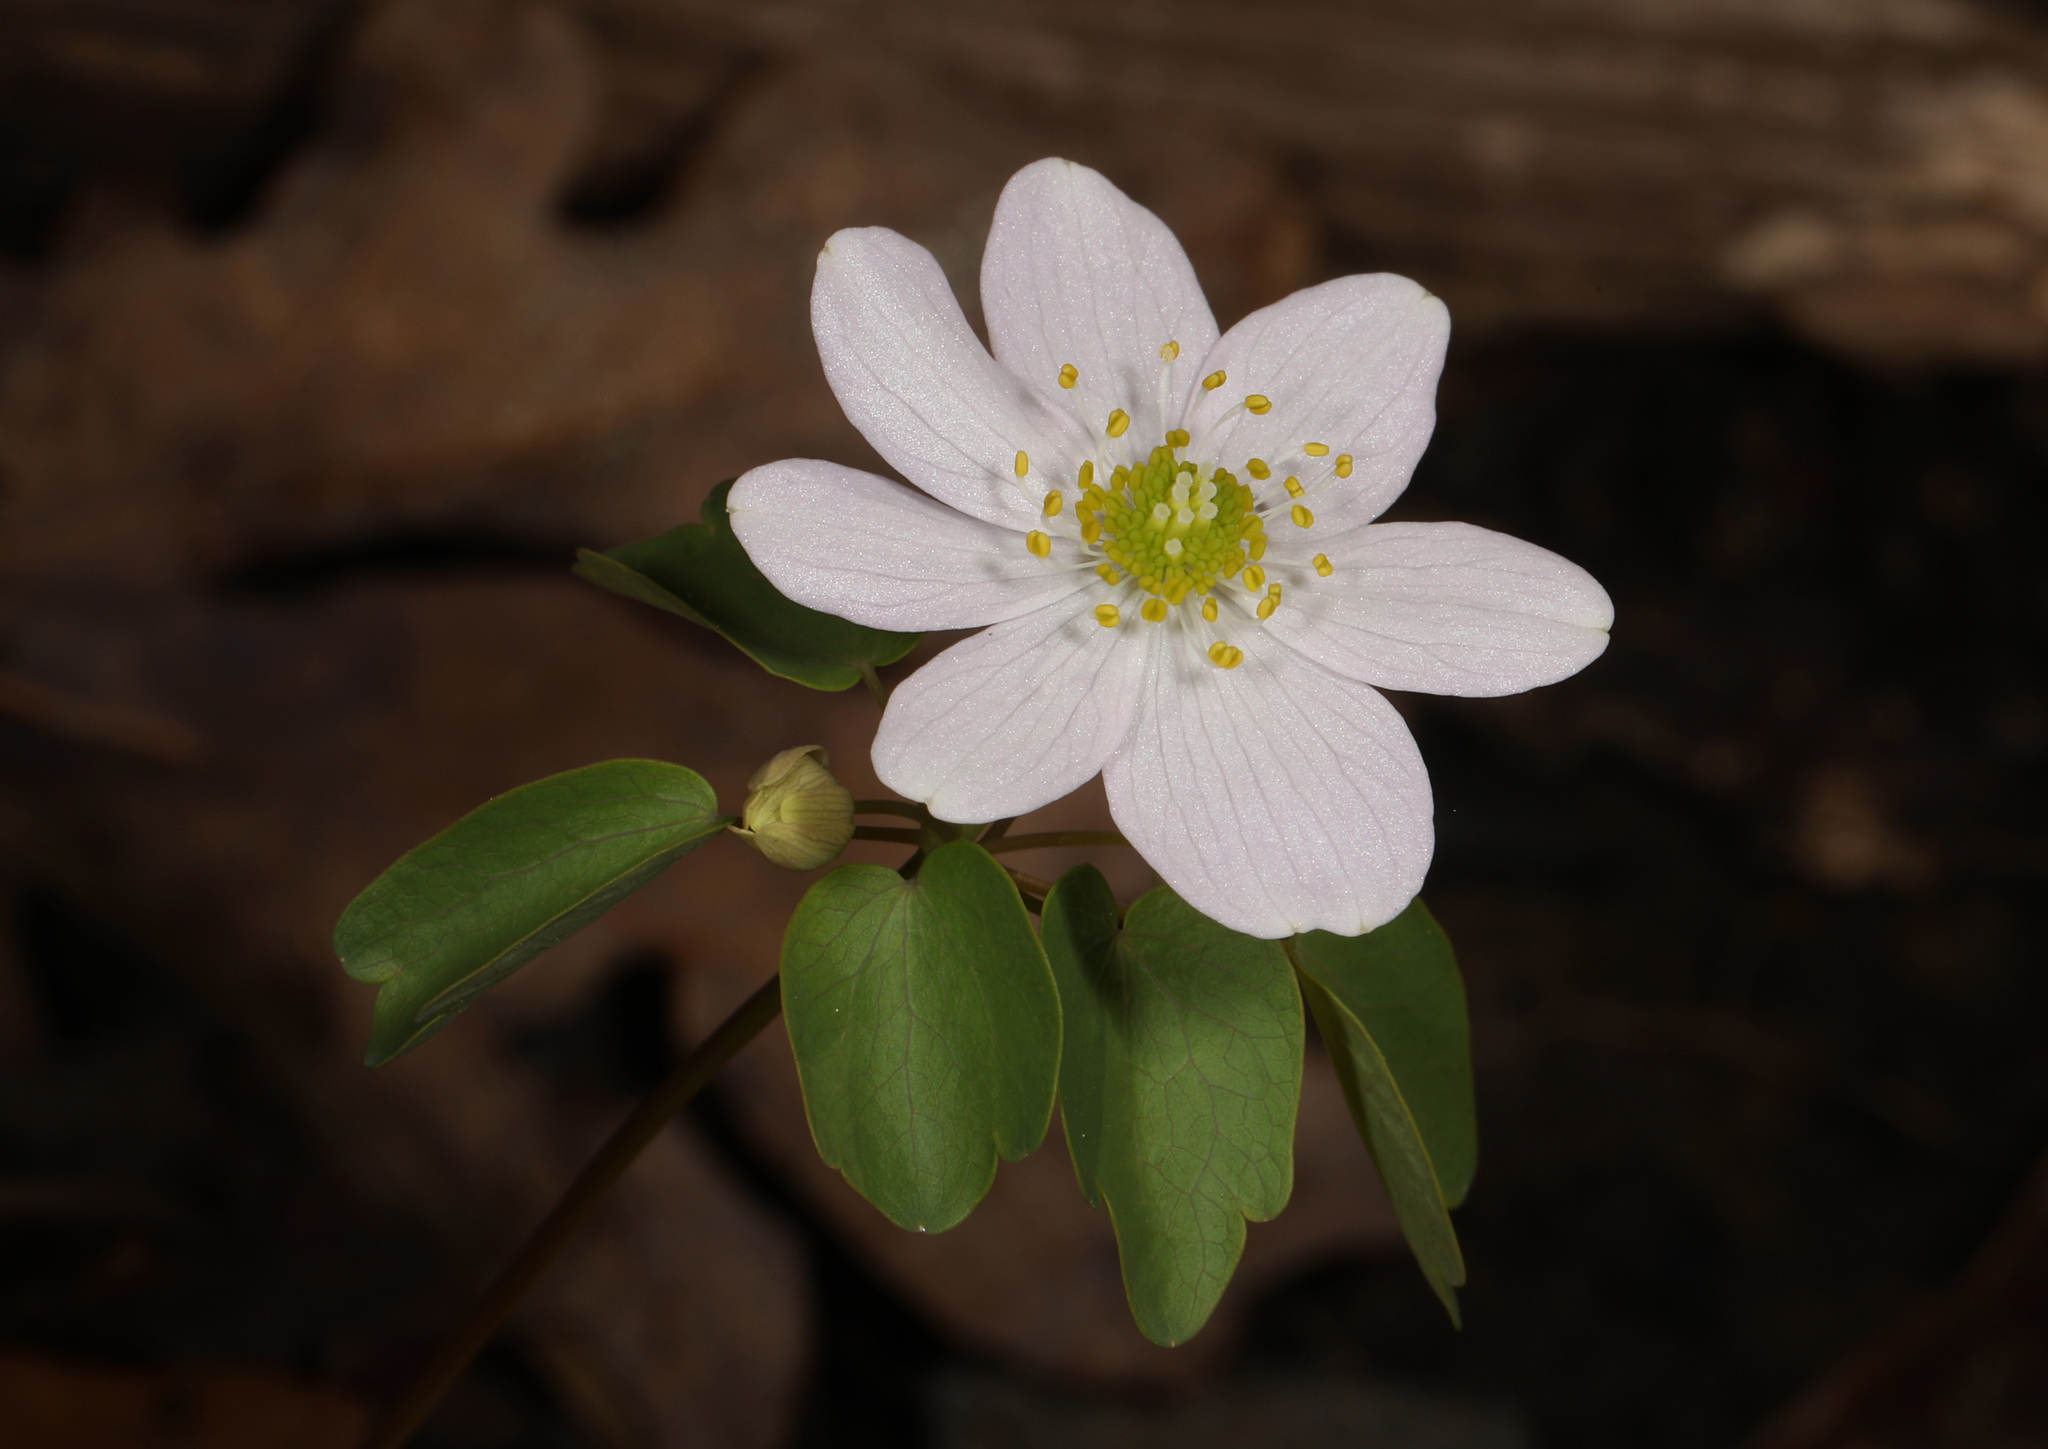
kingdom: Plantae
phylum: Tracheophyta
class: Magnoliopsida
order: Ranunculales
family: Ranunculaceae
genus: Thalictrum
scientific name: Thalictrum thalictroides
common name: Rue-anemone
